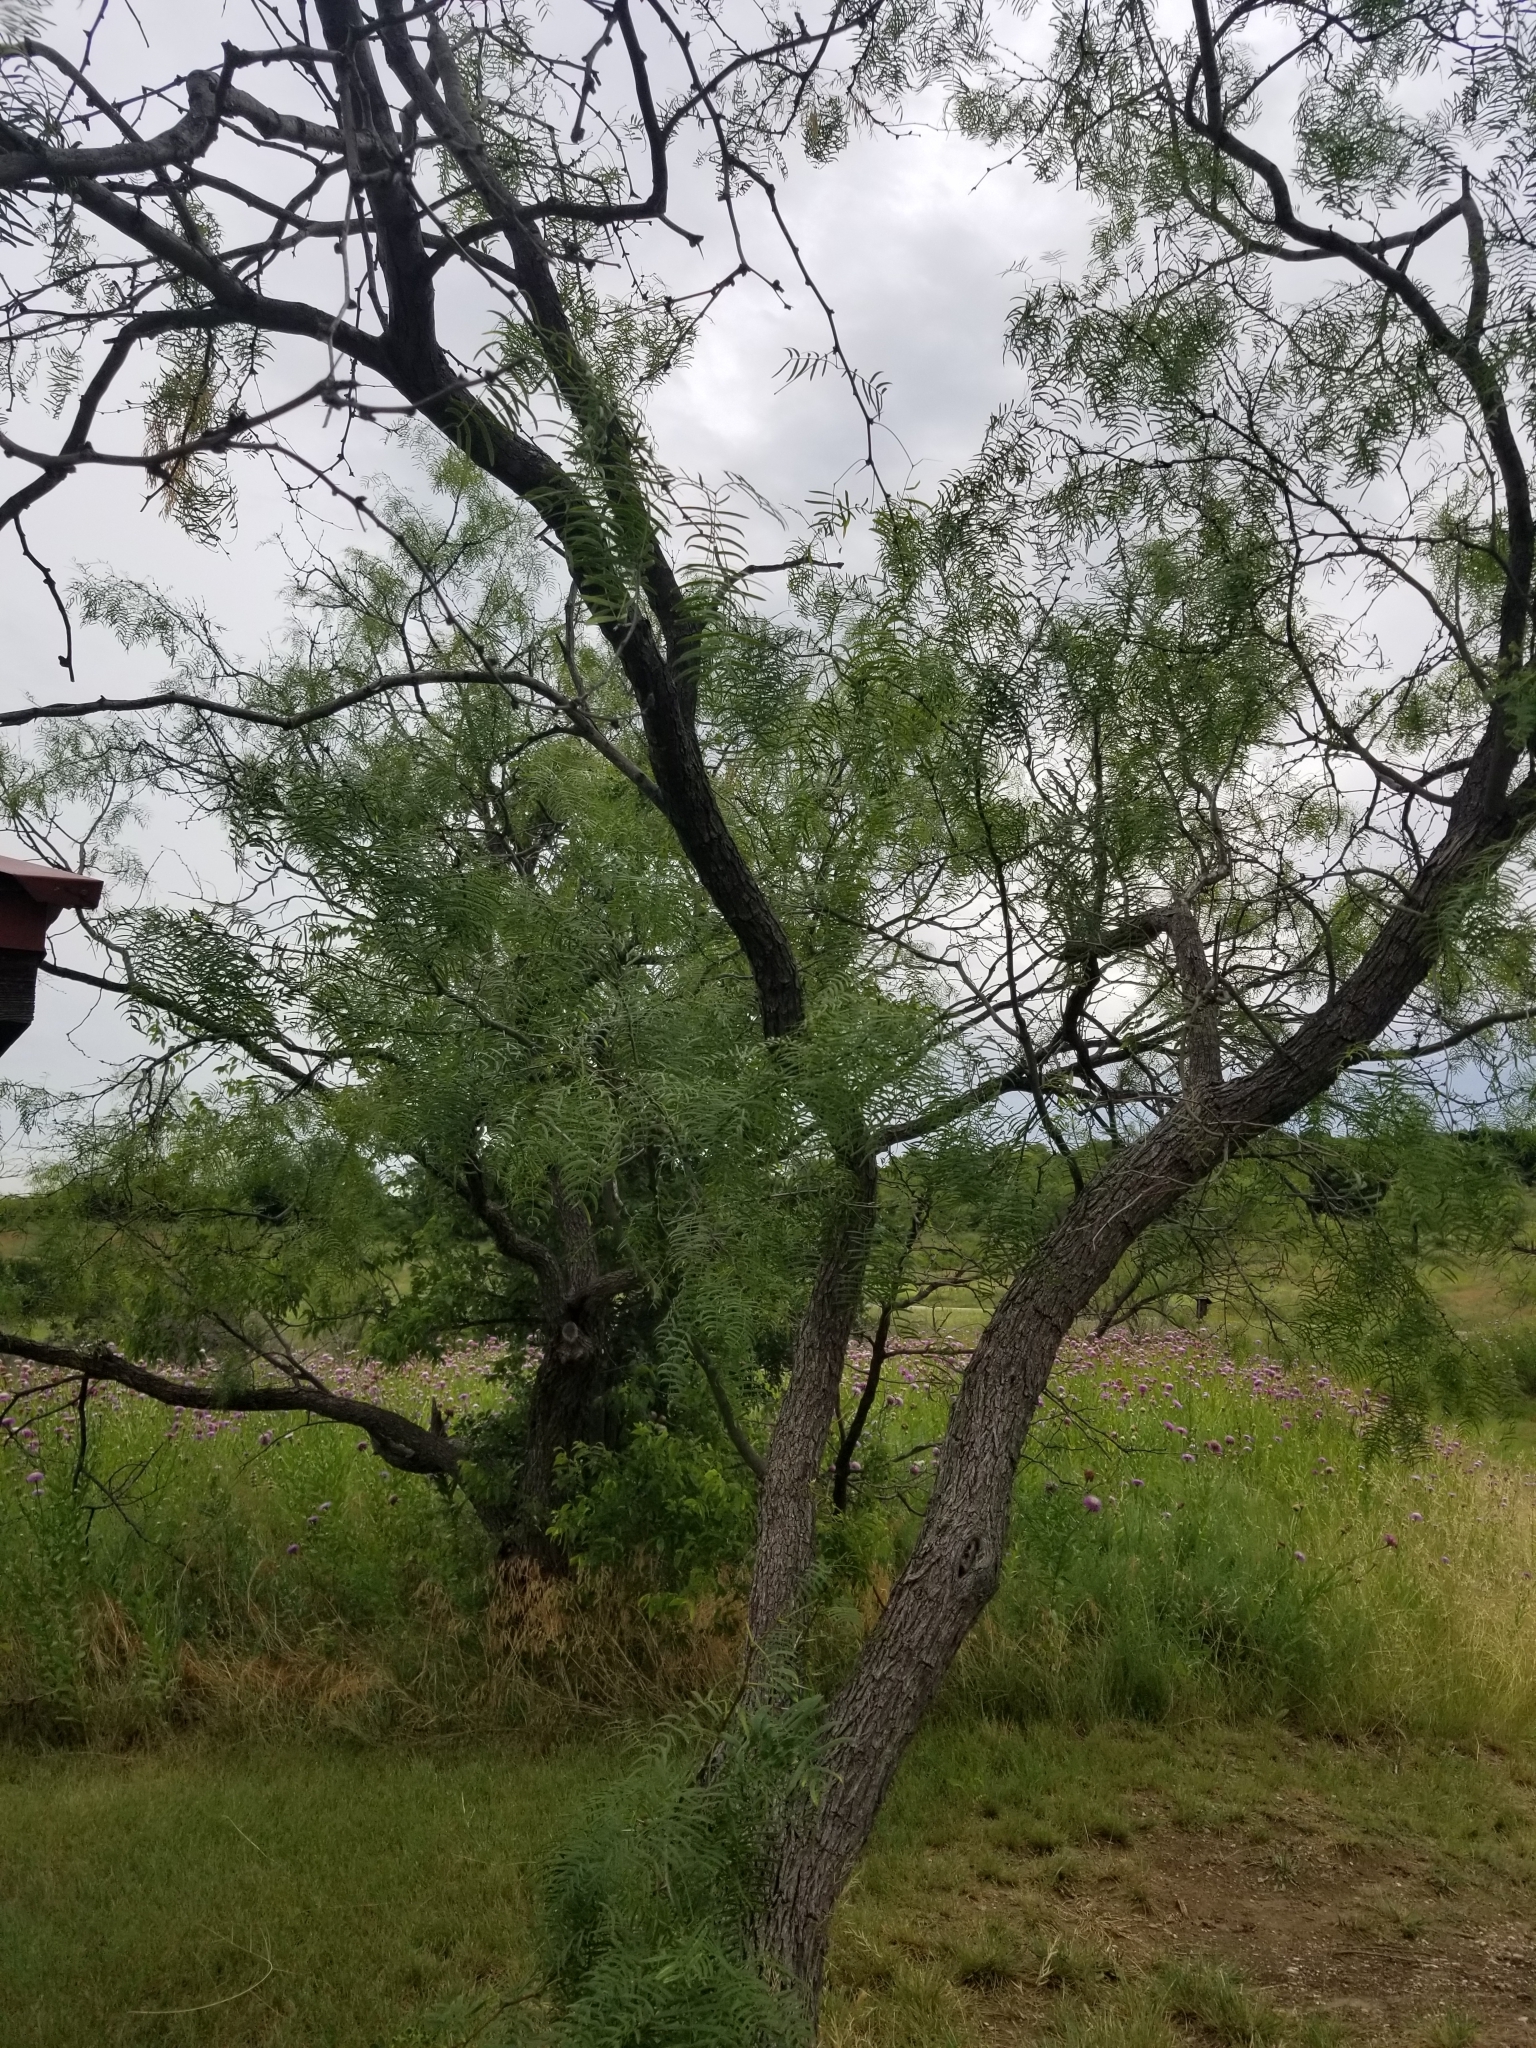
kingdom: Plantae
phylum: Tracheophyta
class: Magnoliopsida
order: Fabales
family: Fabaceae
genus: Prosopis
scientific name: Prosopis glandulosa
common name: Honey mesquite
